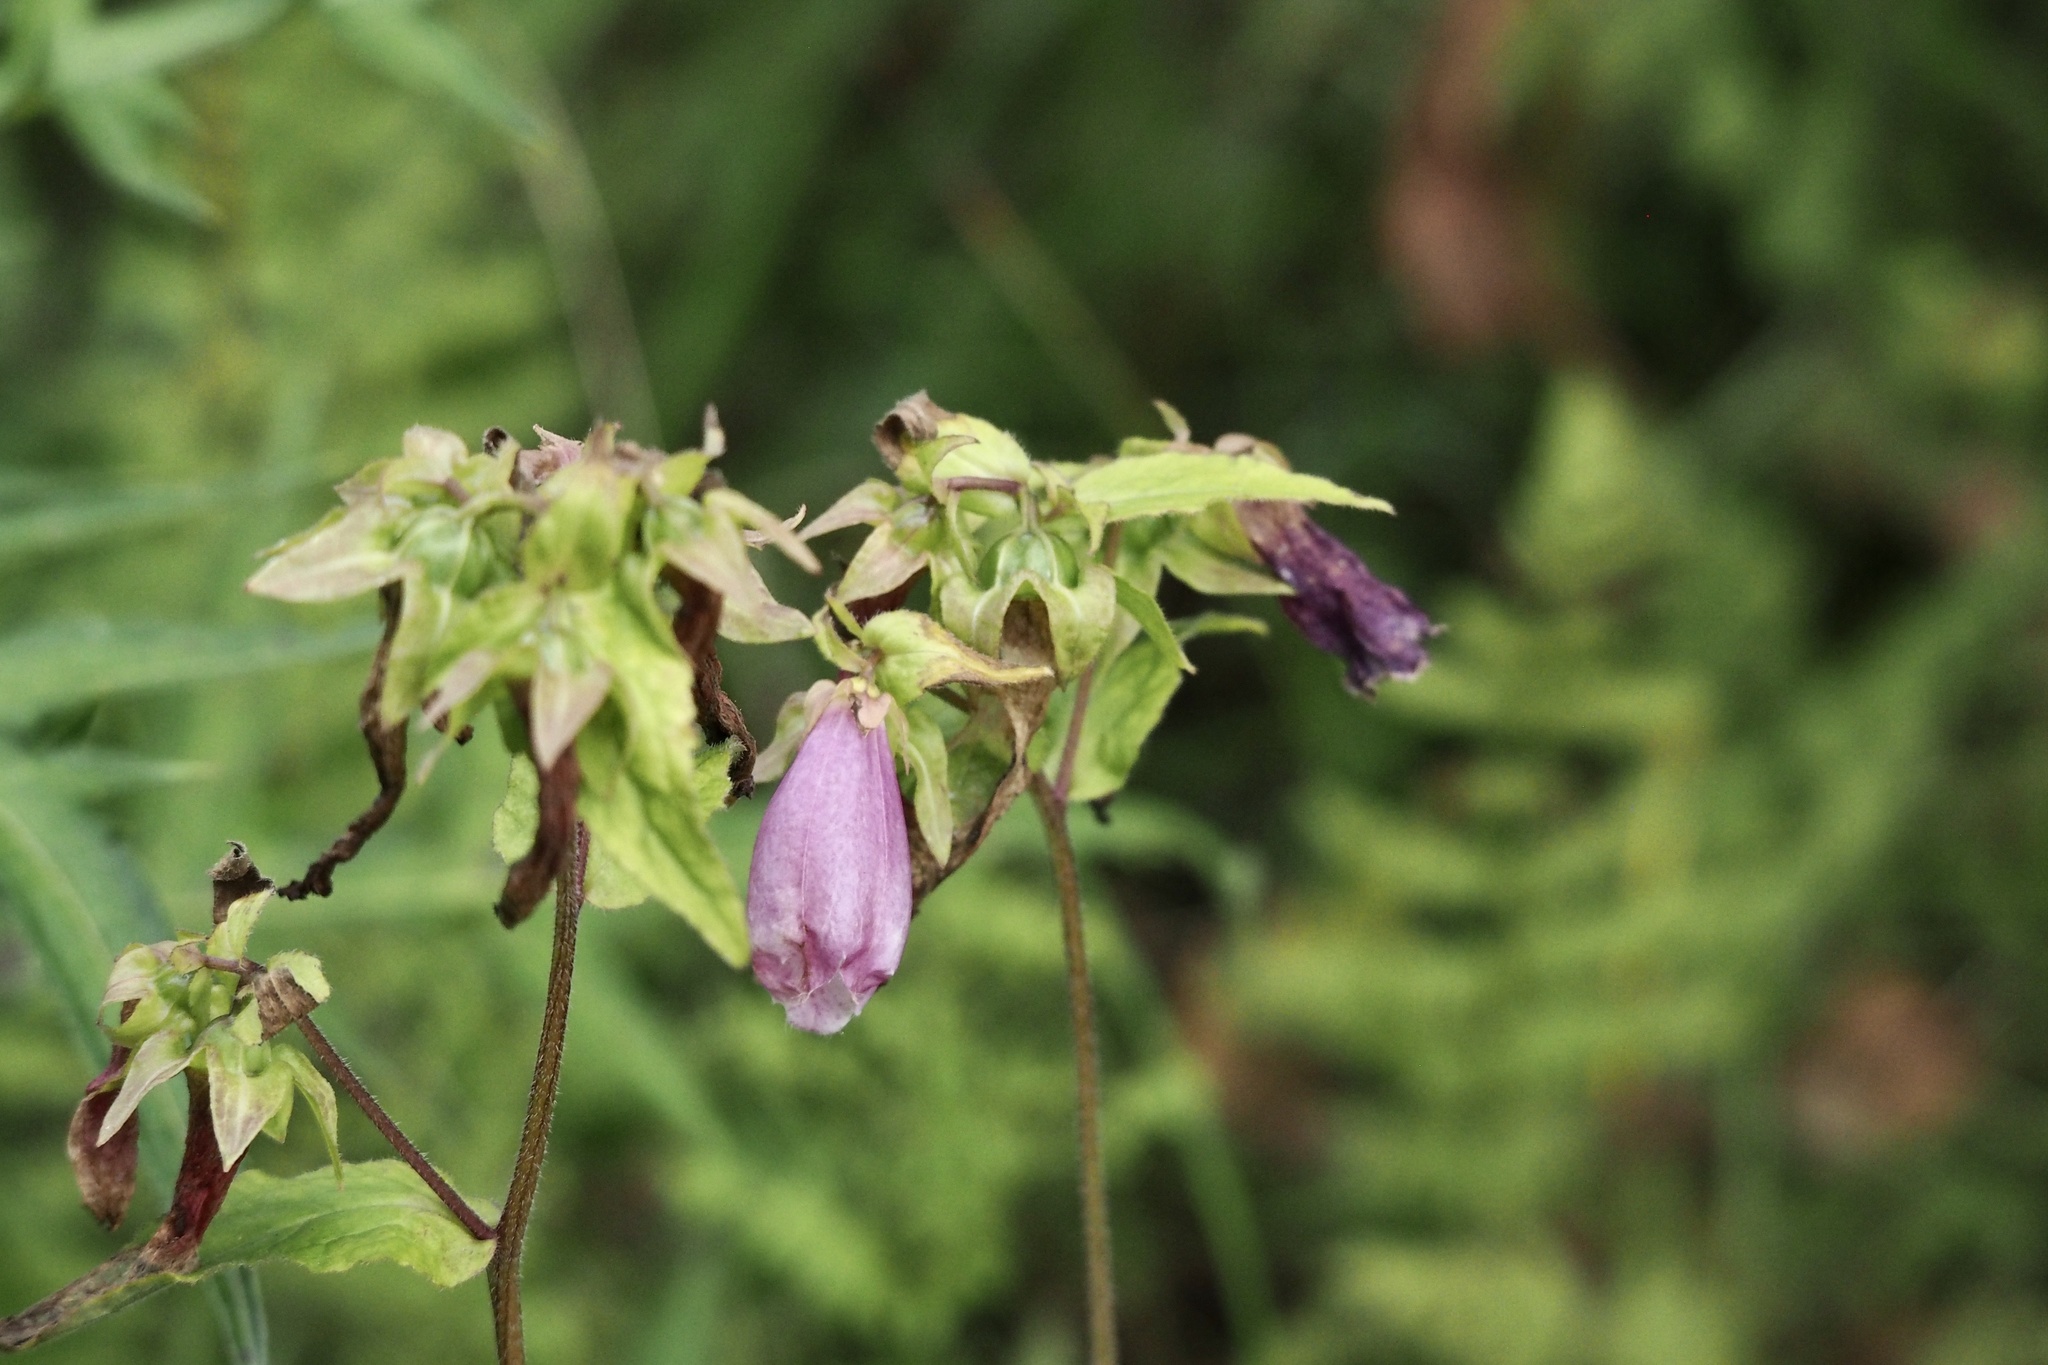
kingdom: Plantae
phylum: Tracheophyta
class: Magnoliopsida
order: Asterales
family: Campanulaceae
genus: Campanula
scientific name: Campanula punctata
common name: Spotted bellflower
